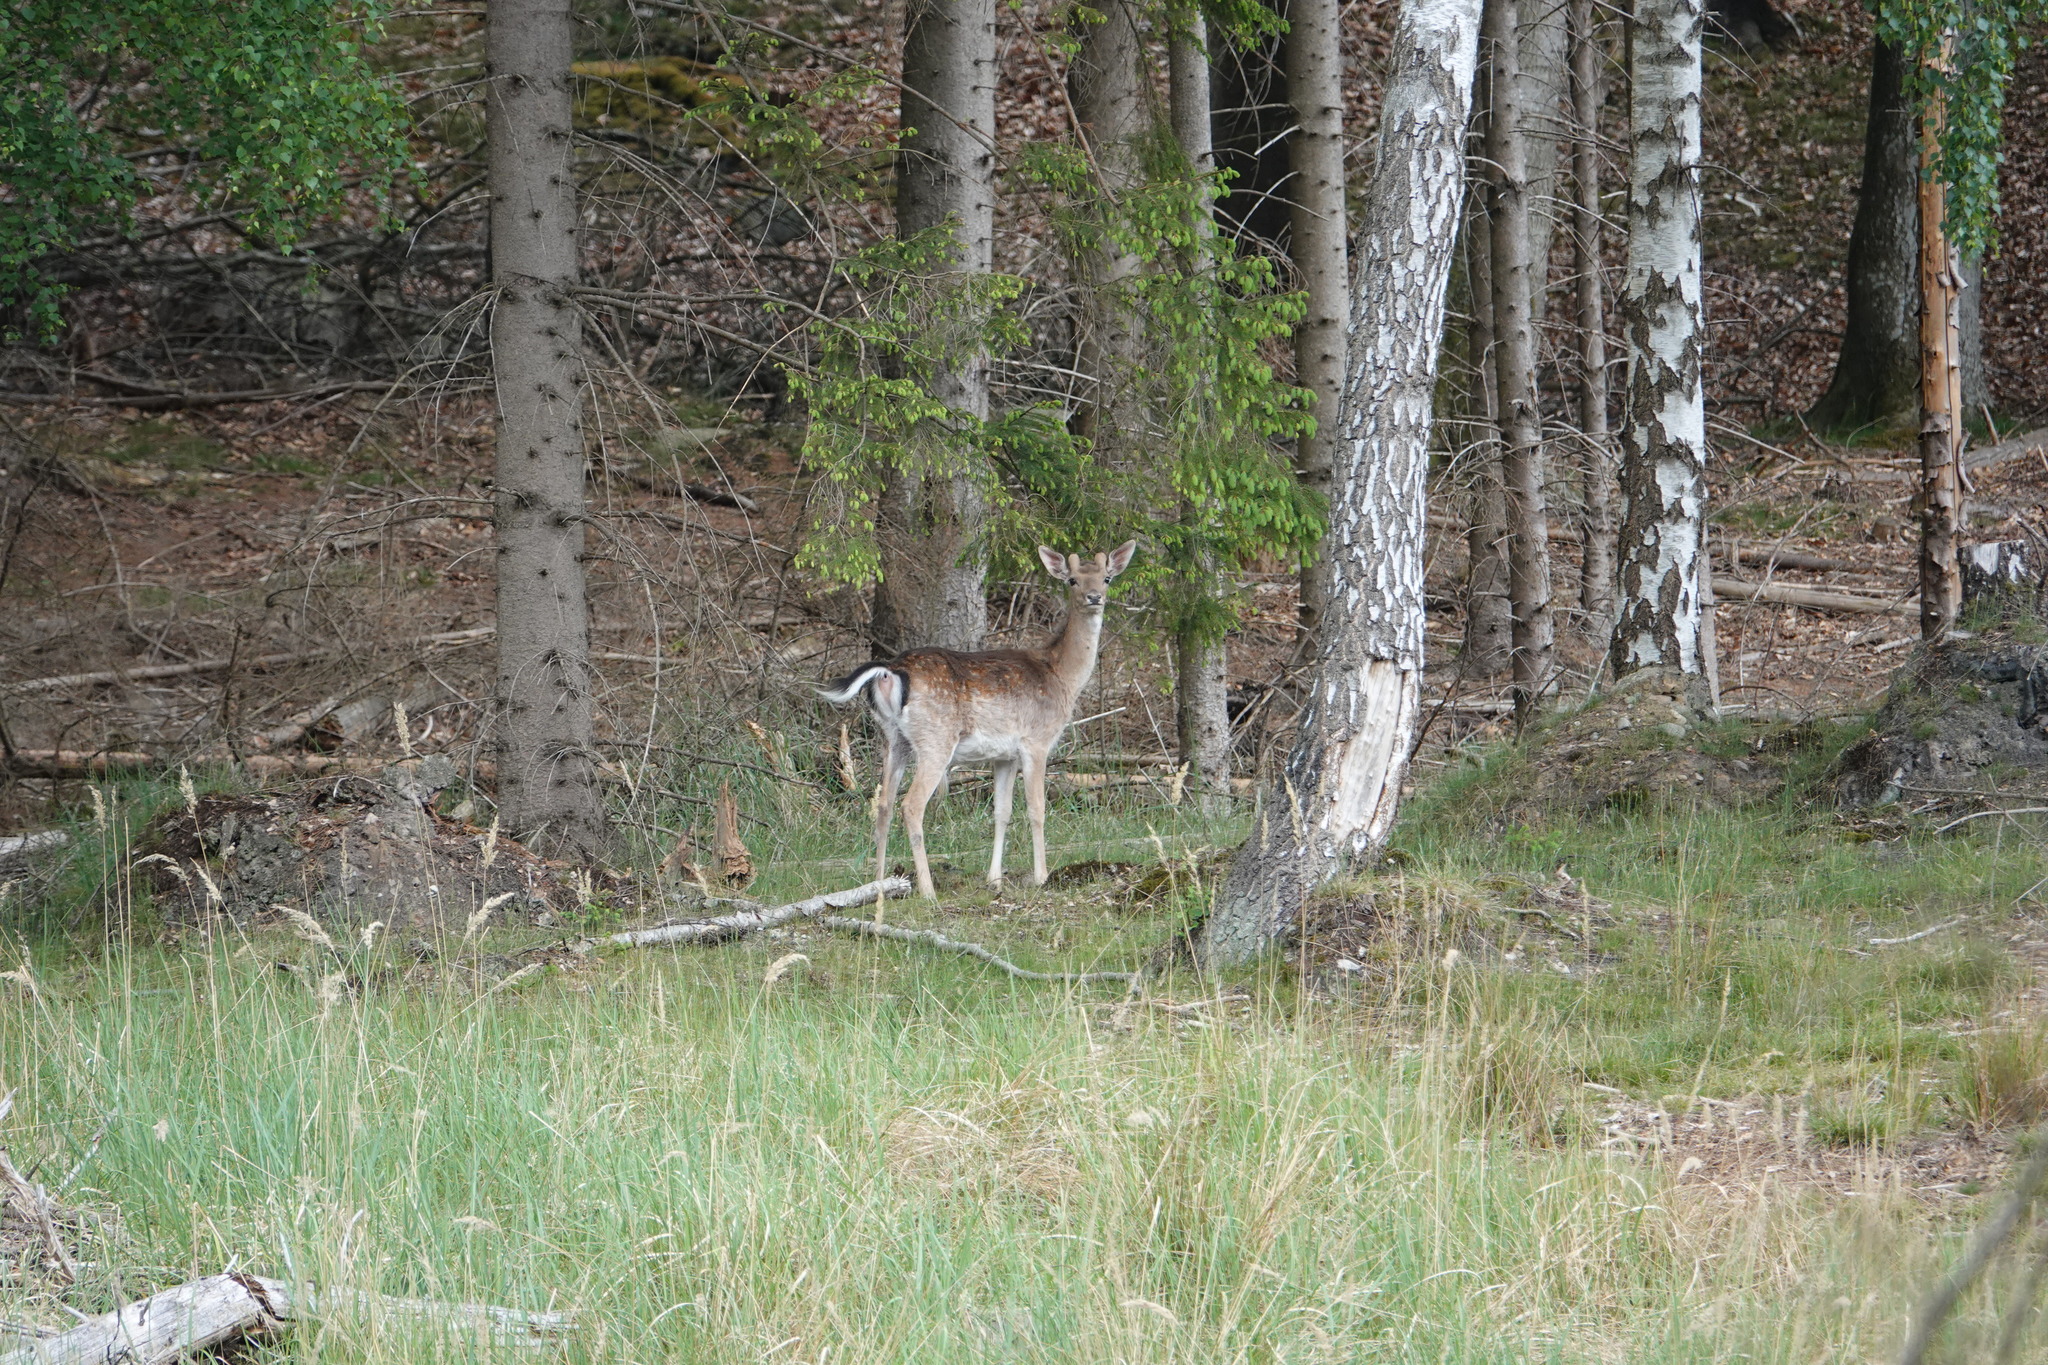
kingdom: Animalia
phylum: Chordata
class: Mammalia
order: Artiodactyla
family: Cervidae
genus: Dama
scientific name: Dama dama
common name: Fallow deer
